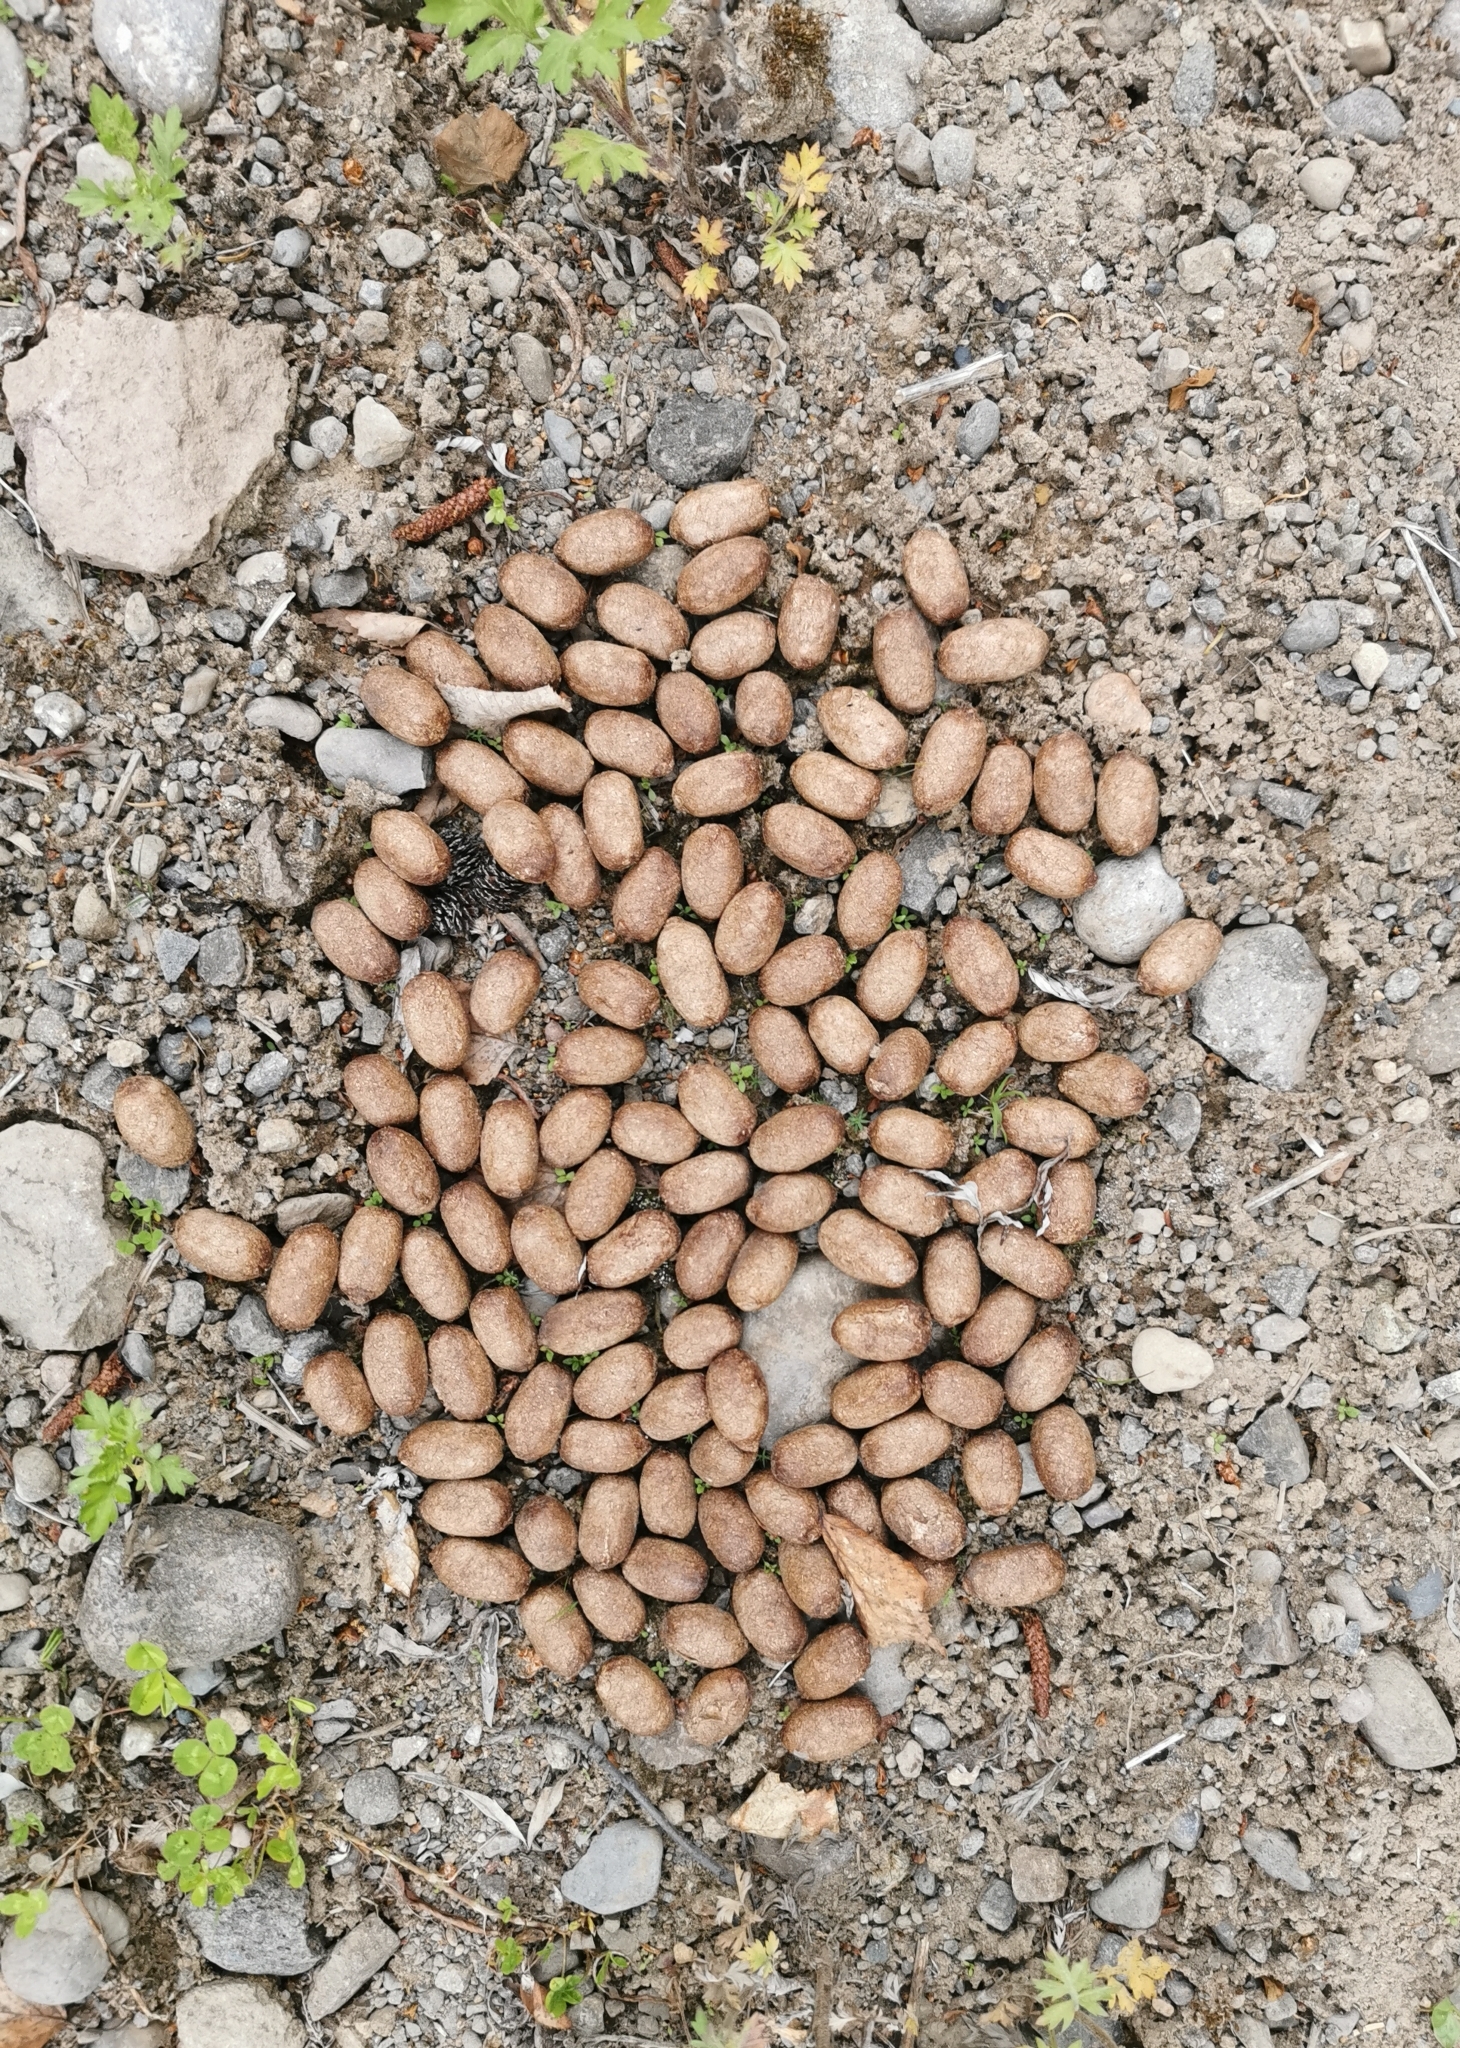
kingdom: Animalia
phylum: Chordata
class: Mammalia
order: Artiodactyla
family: Cervidae
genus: Alces
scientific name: Alces alces
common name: Moose
